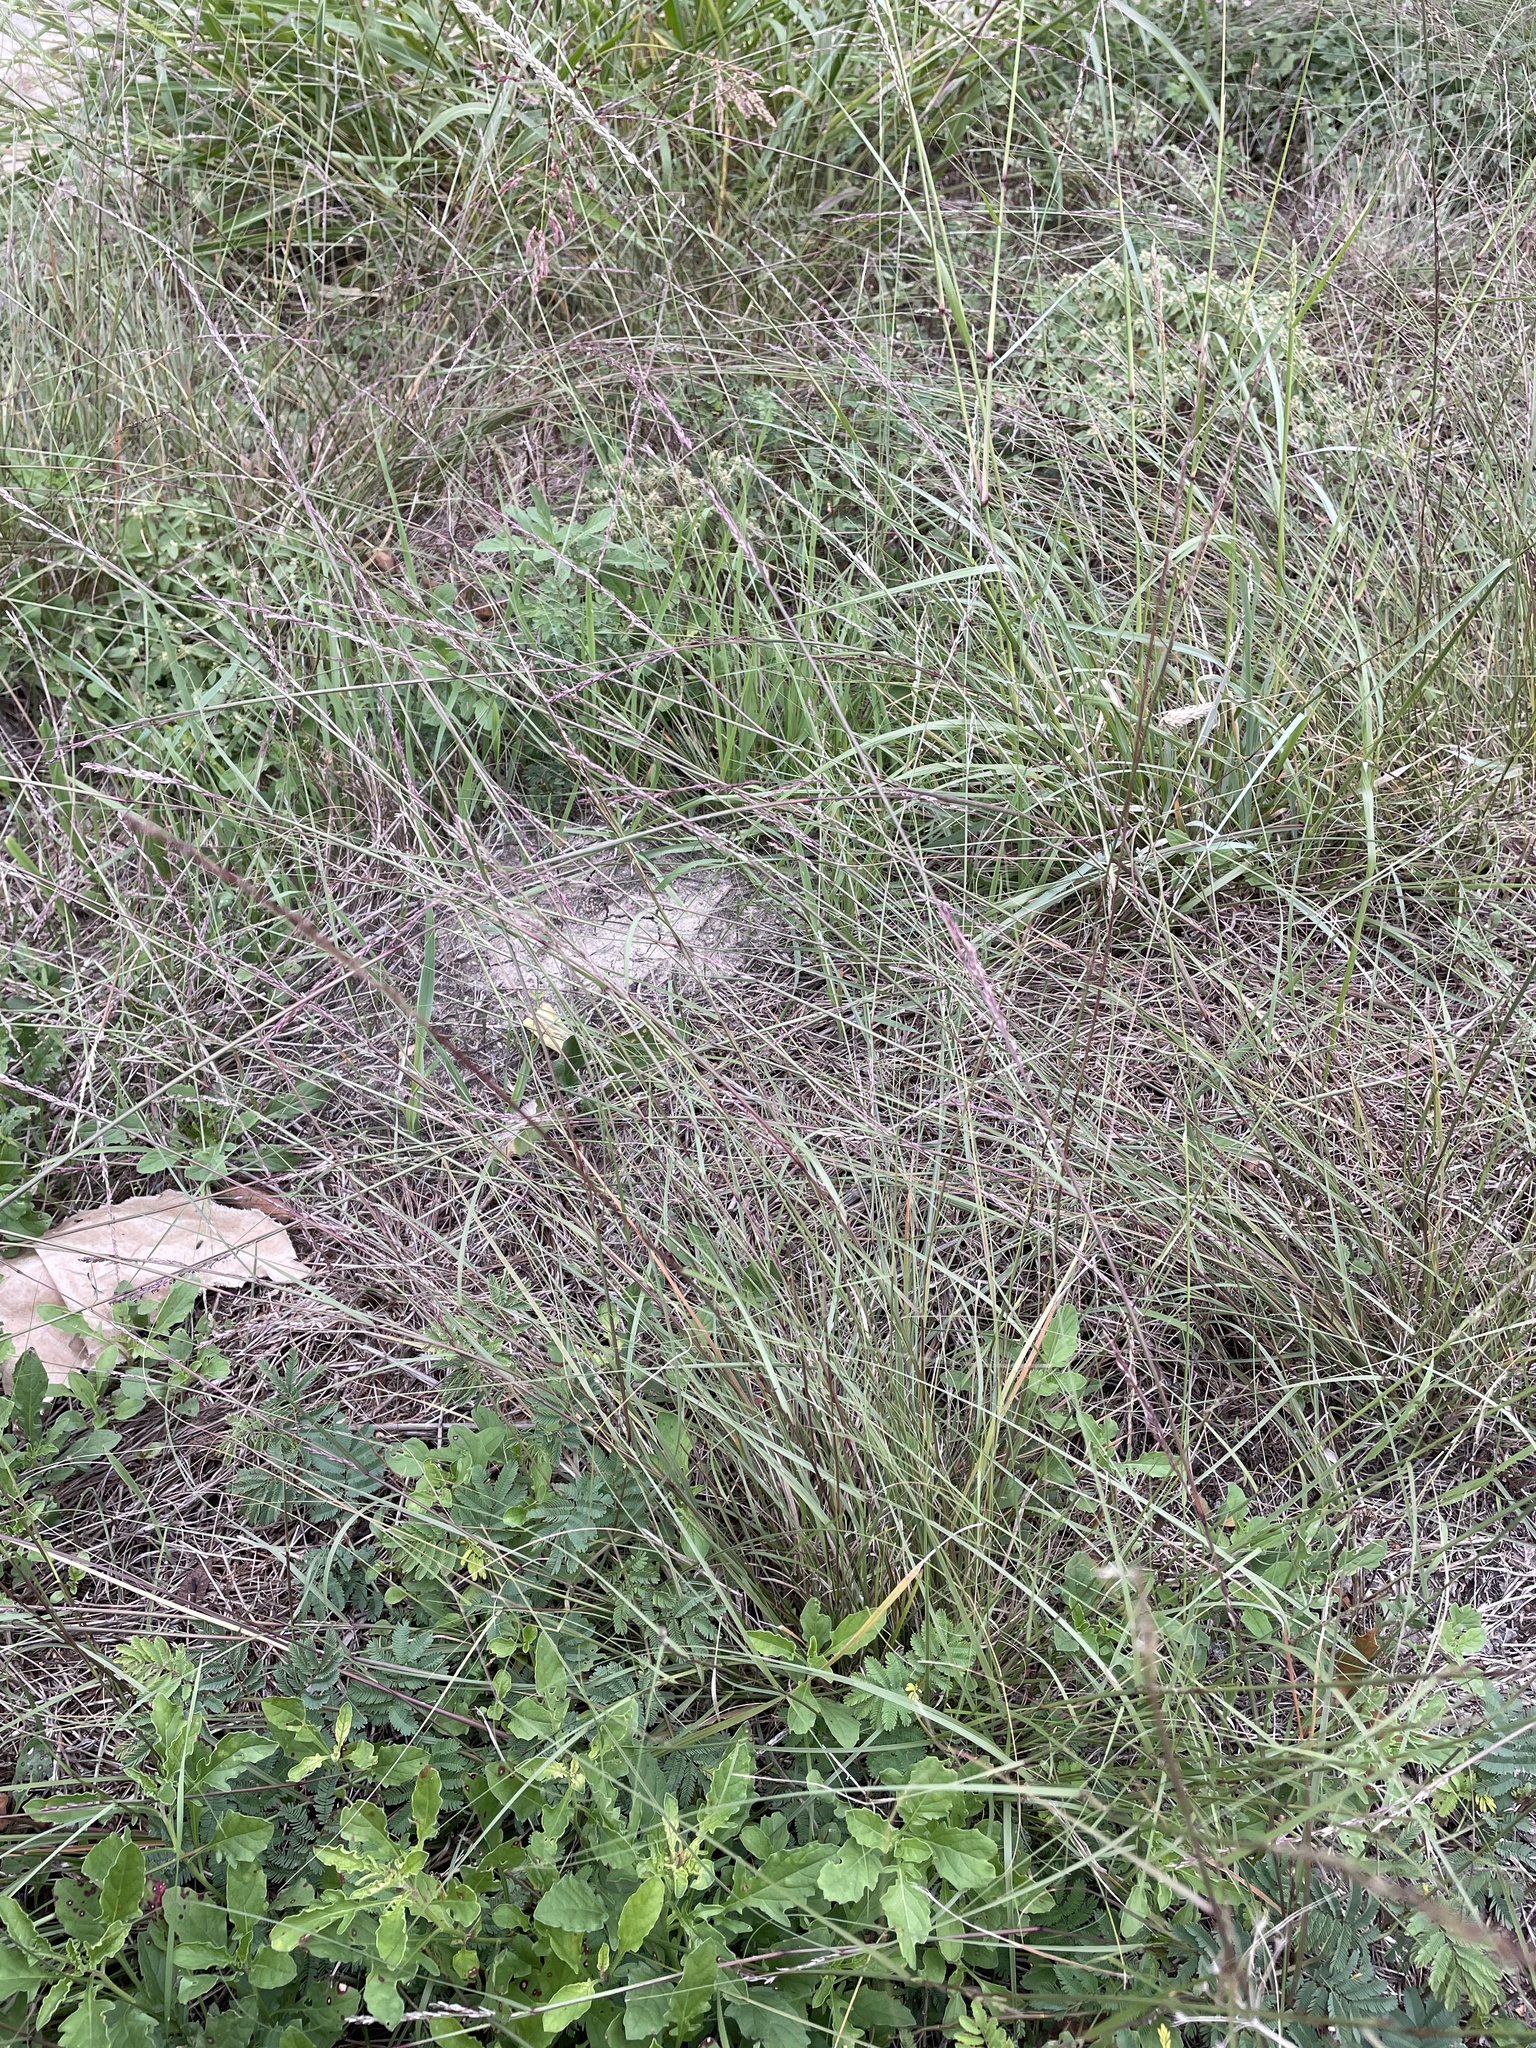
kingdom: Plantae
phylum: Tracheophyta
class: Liliopsida
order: Poales
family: Poaceae
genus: Sporobolus
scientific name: Sporobolus compositus
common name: Rough dropseed
